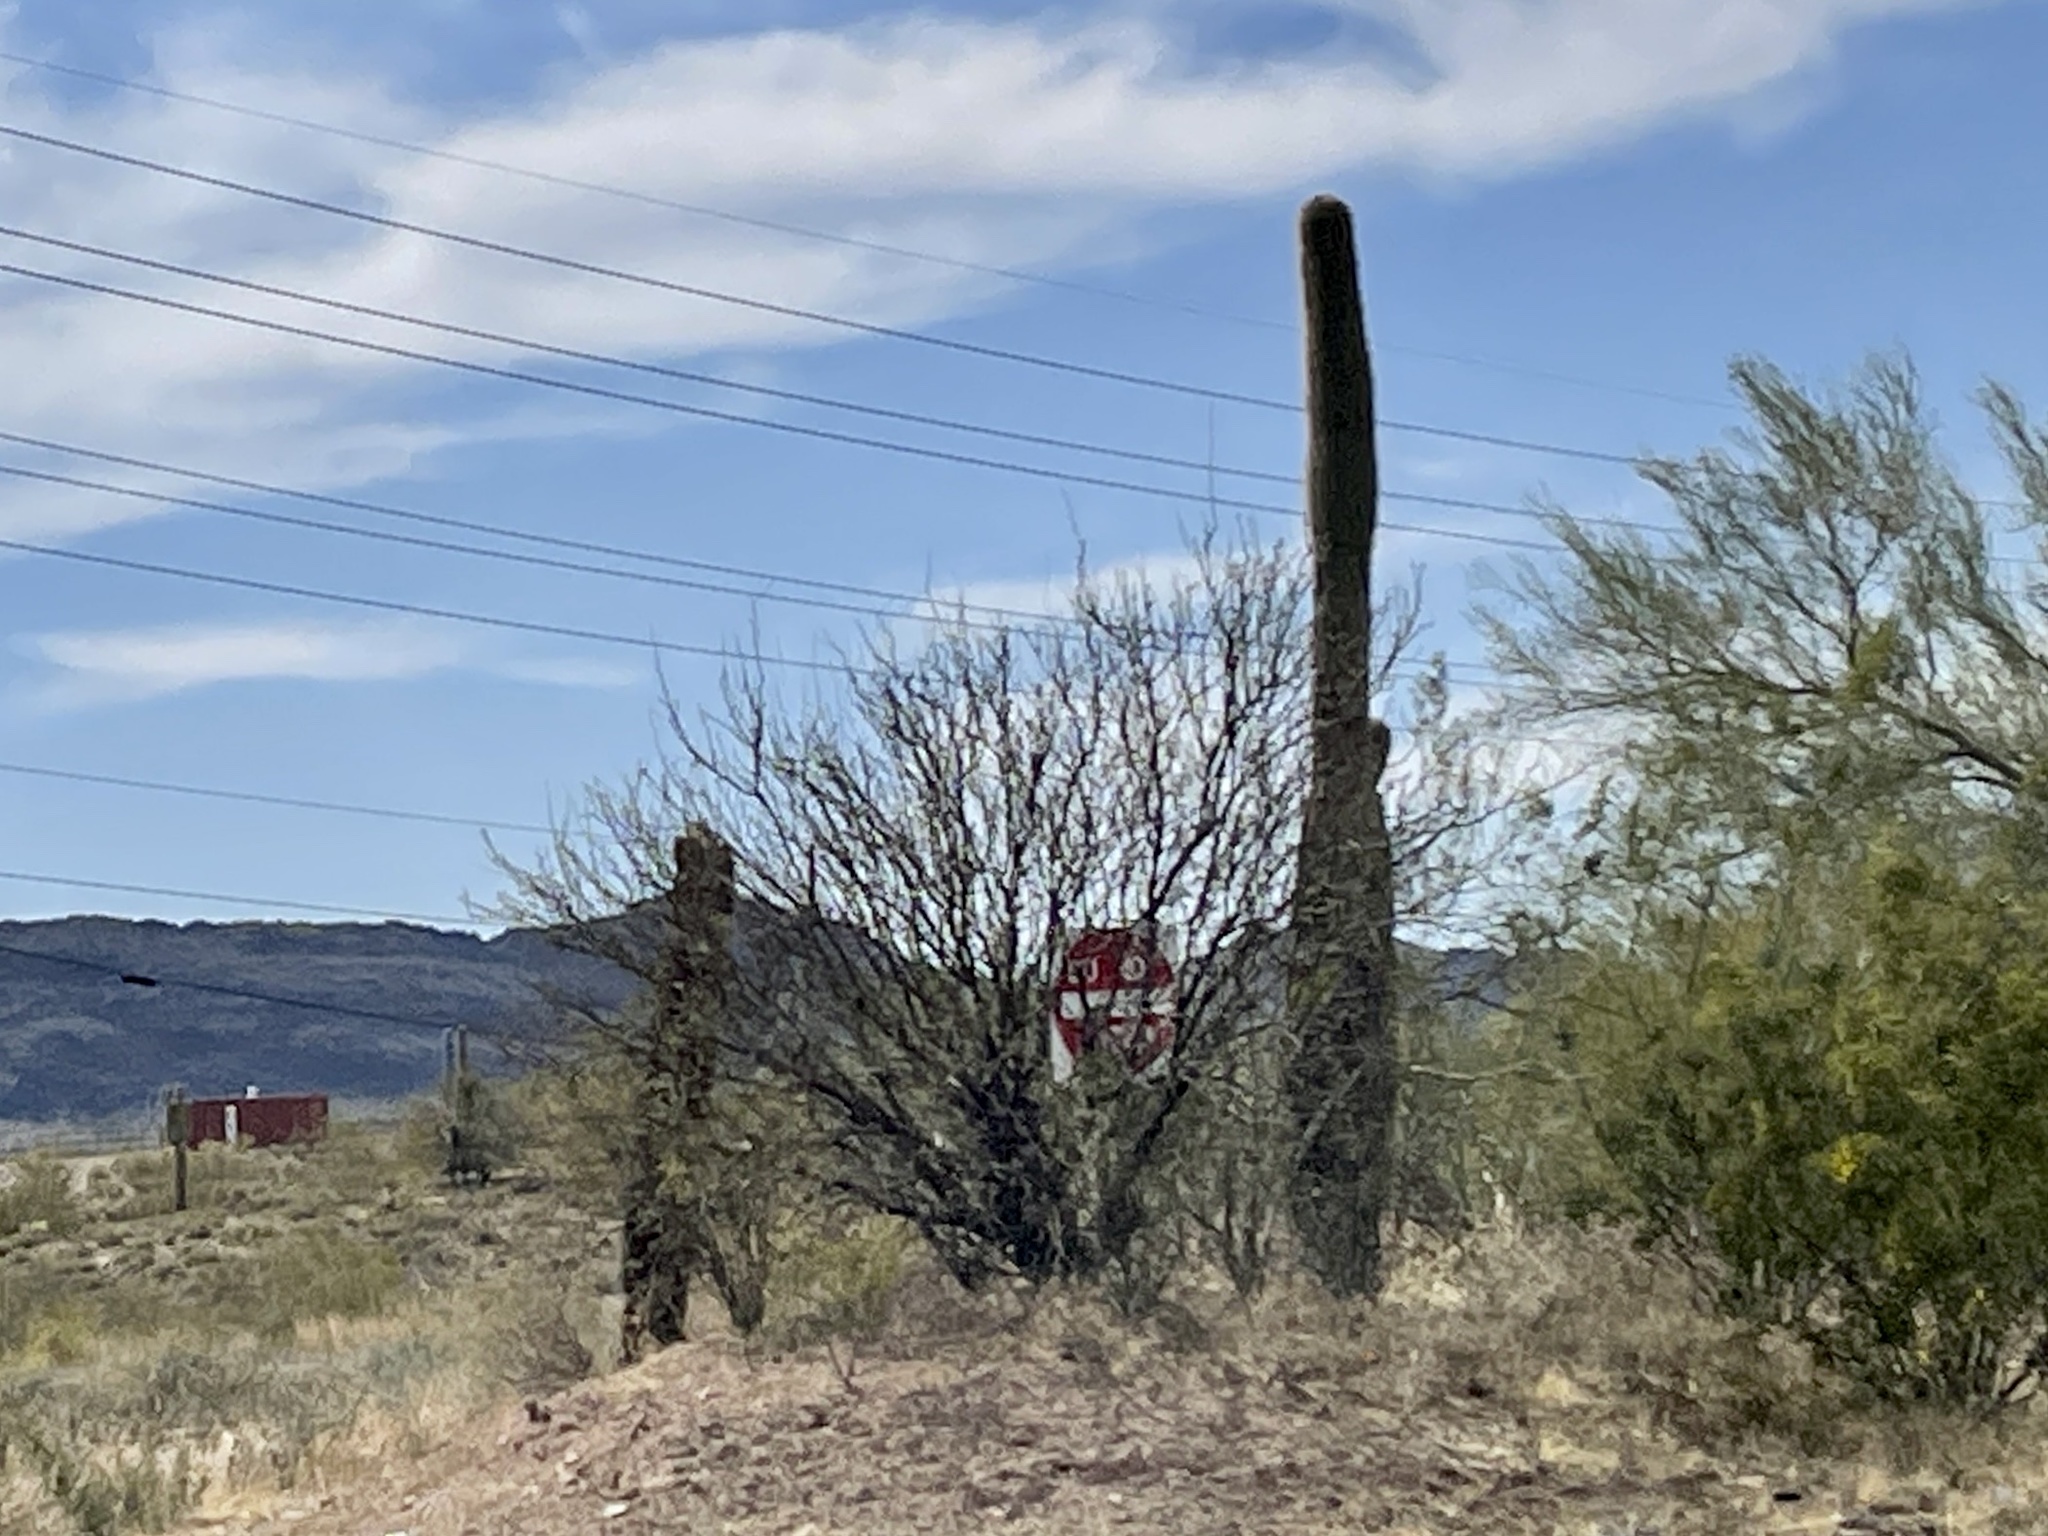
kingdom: Plantae
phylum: Tracheophyta
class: Magnoliopsida
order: Caryophyllales
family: Cactaceae
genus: Carnegiea
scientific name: Carnegiea gigantea
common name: Saguaro
